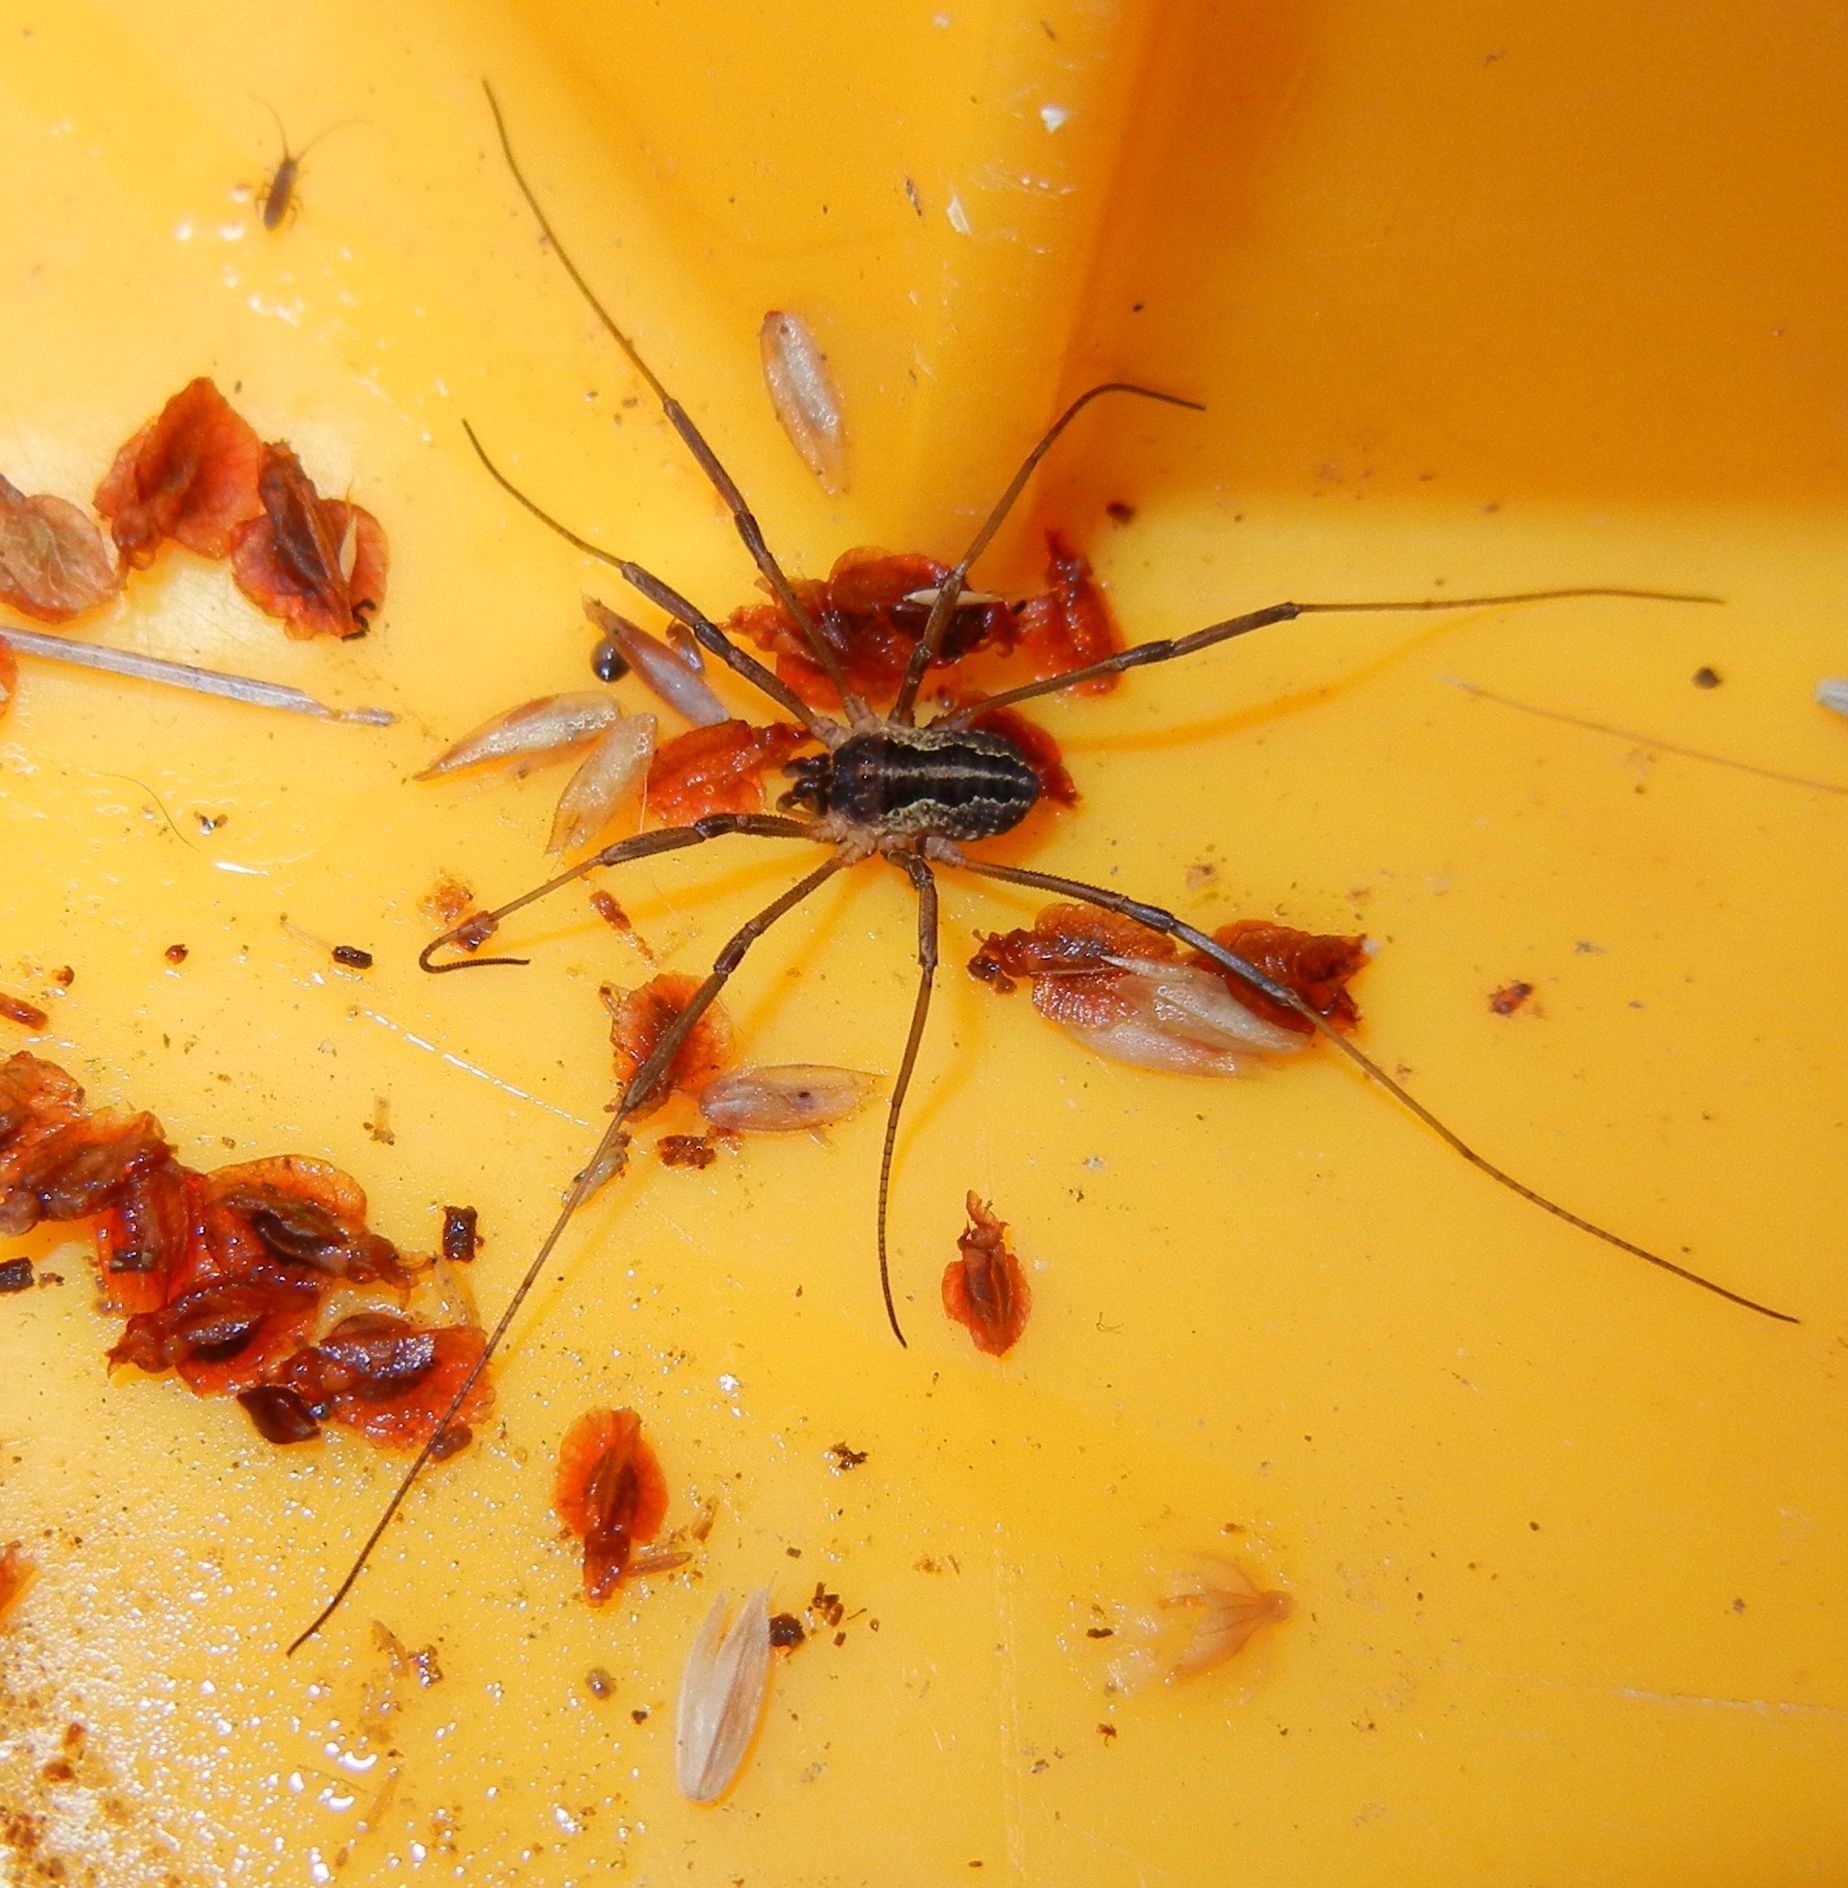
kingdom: Animalia
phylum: Arthropoda
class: Arachnida
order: Opiliones
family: Phalangiidae
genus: Mitopus
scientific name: Mitopus morio
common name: Saddleback harvestman
